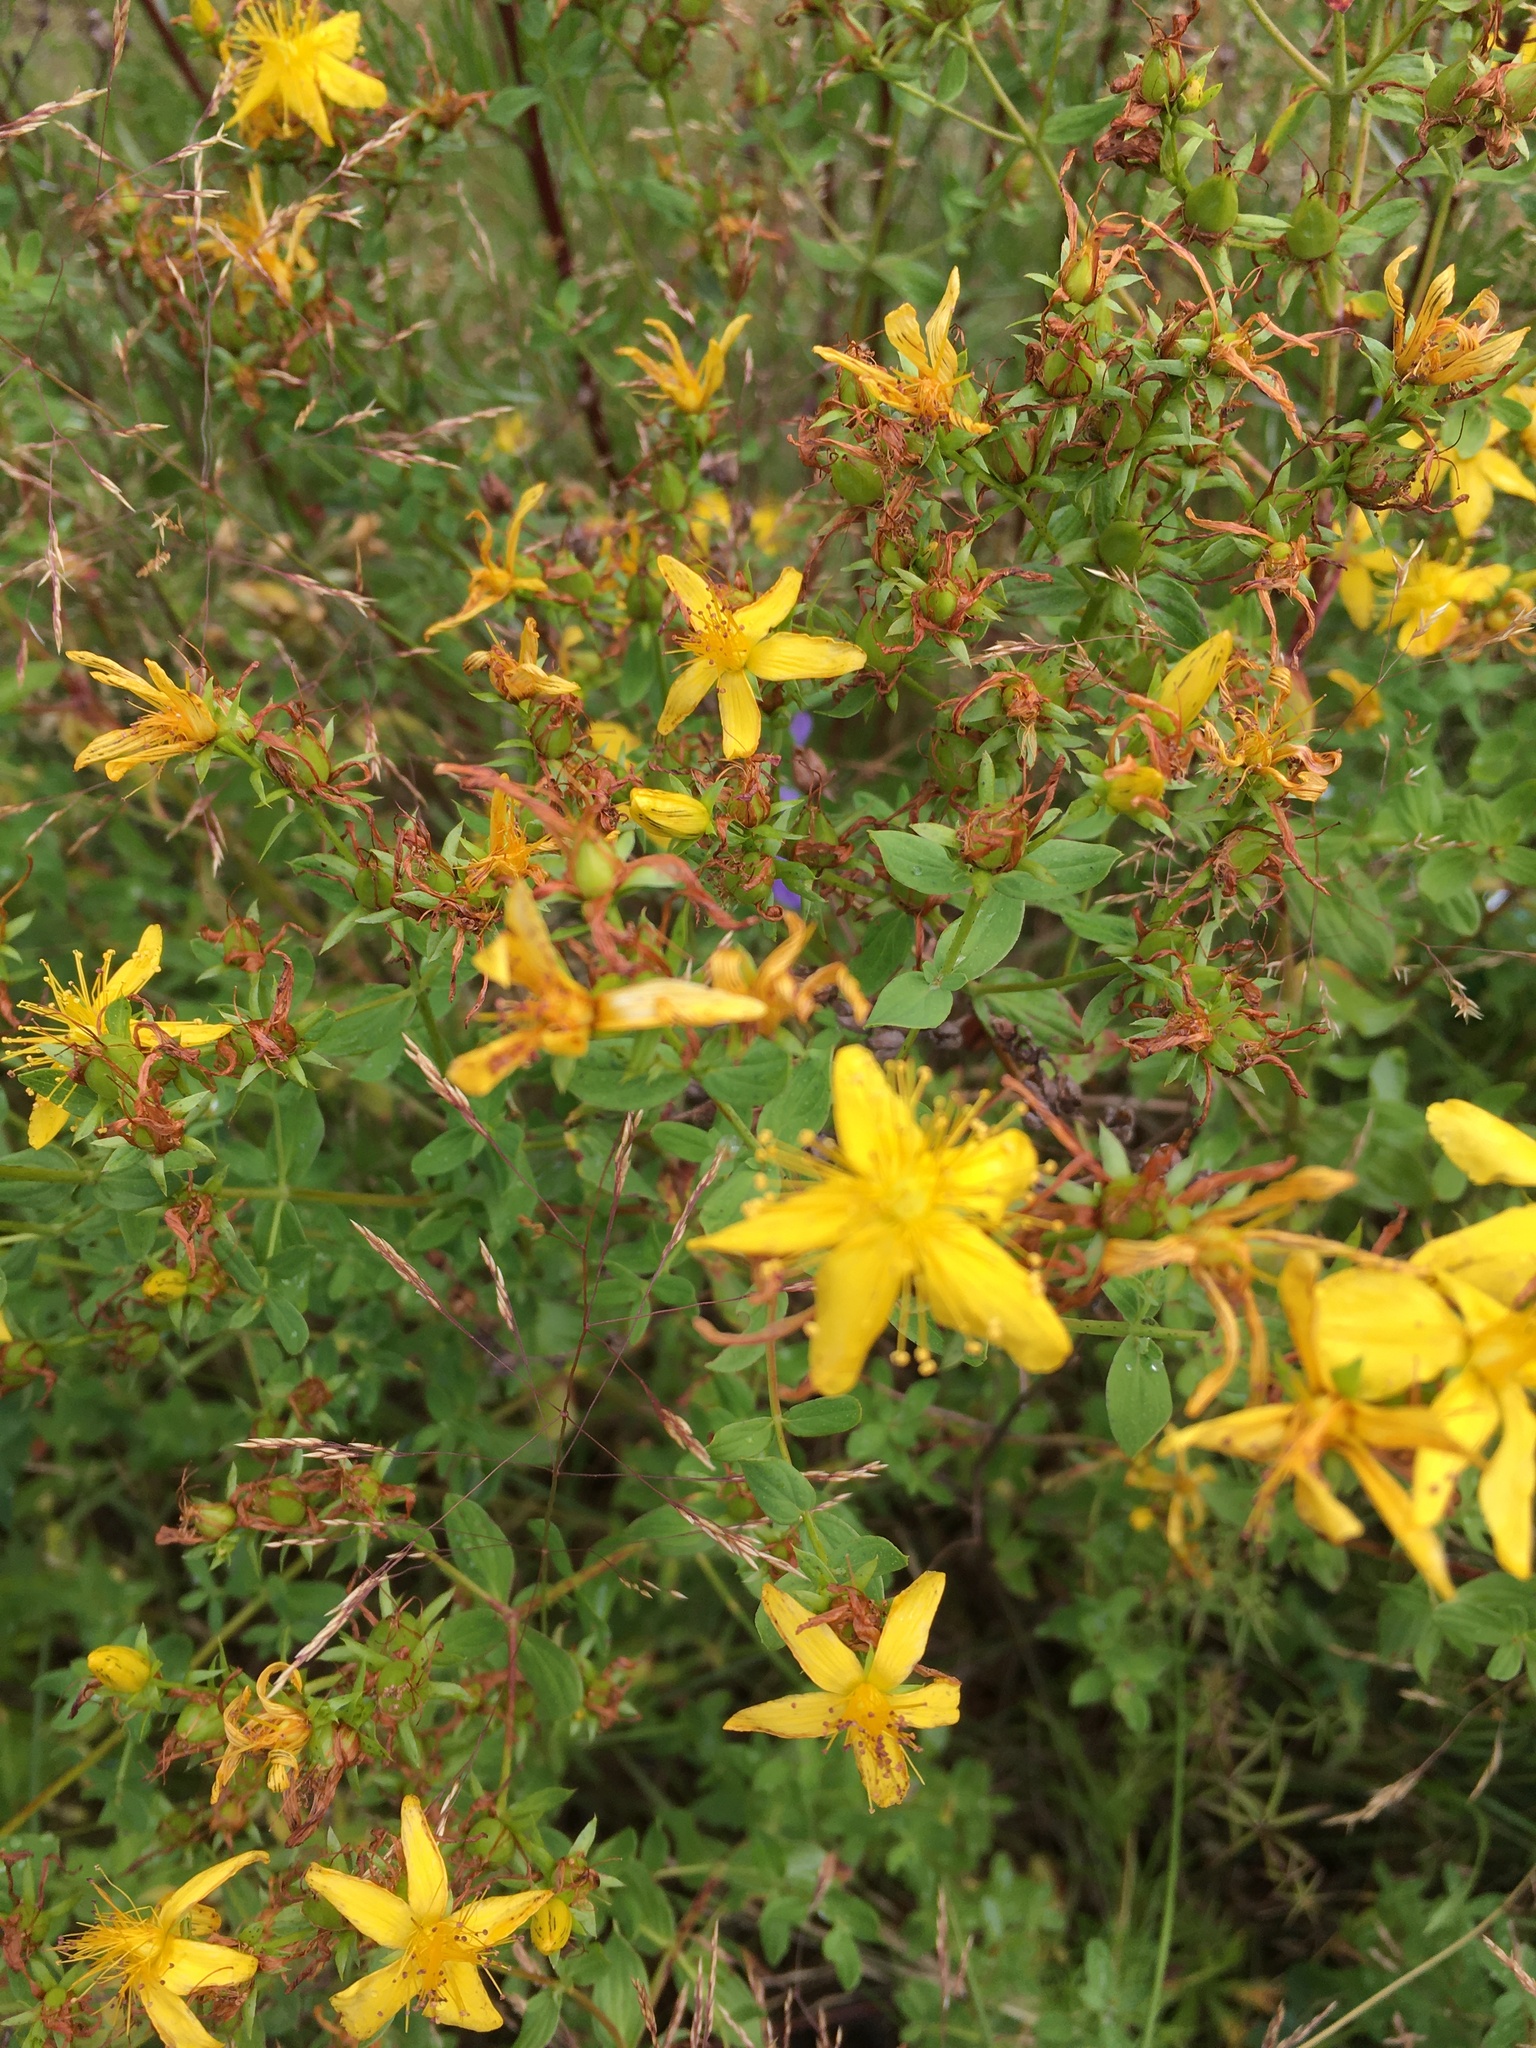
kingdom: Plantae
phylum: Tracheophyta
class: Magnoliopsida
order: Malpighiales
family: Hypericaceae
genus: Hypericum
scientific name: Hypericum perforatum
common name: Common st. johnswort
